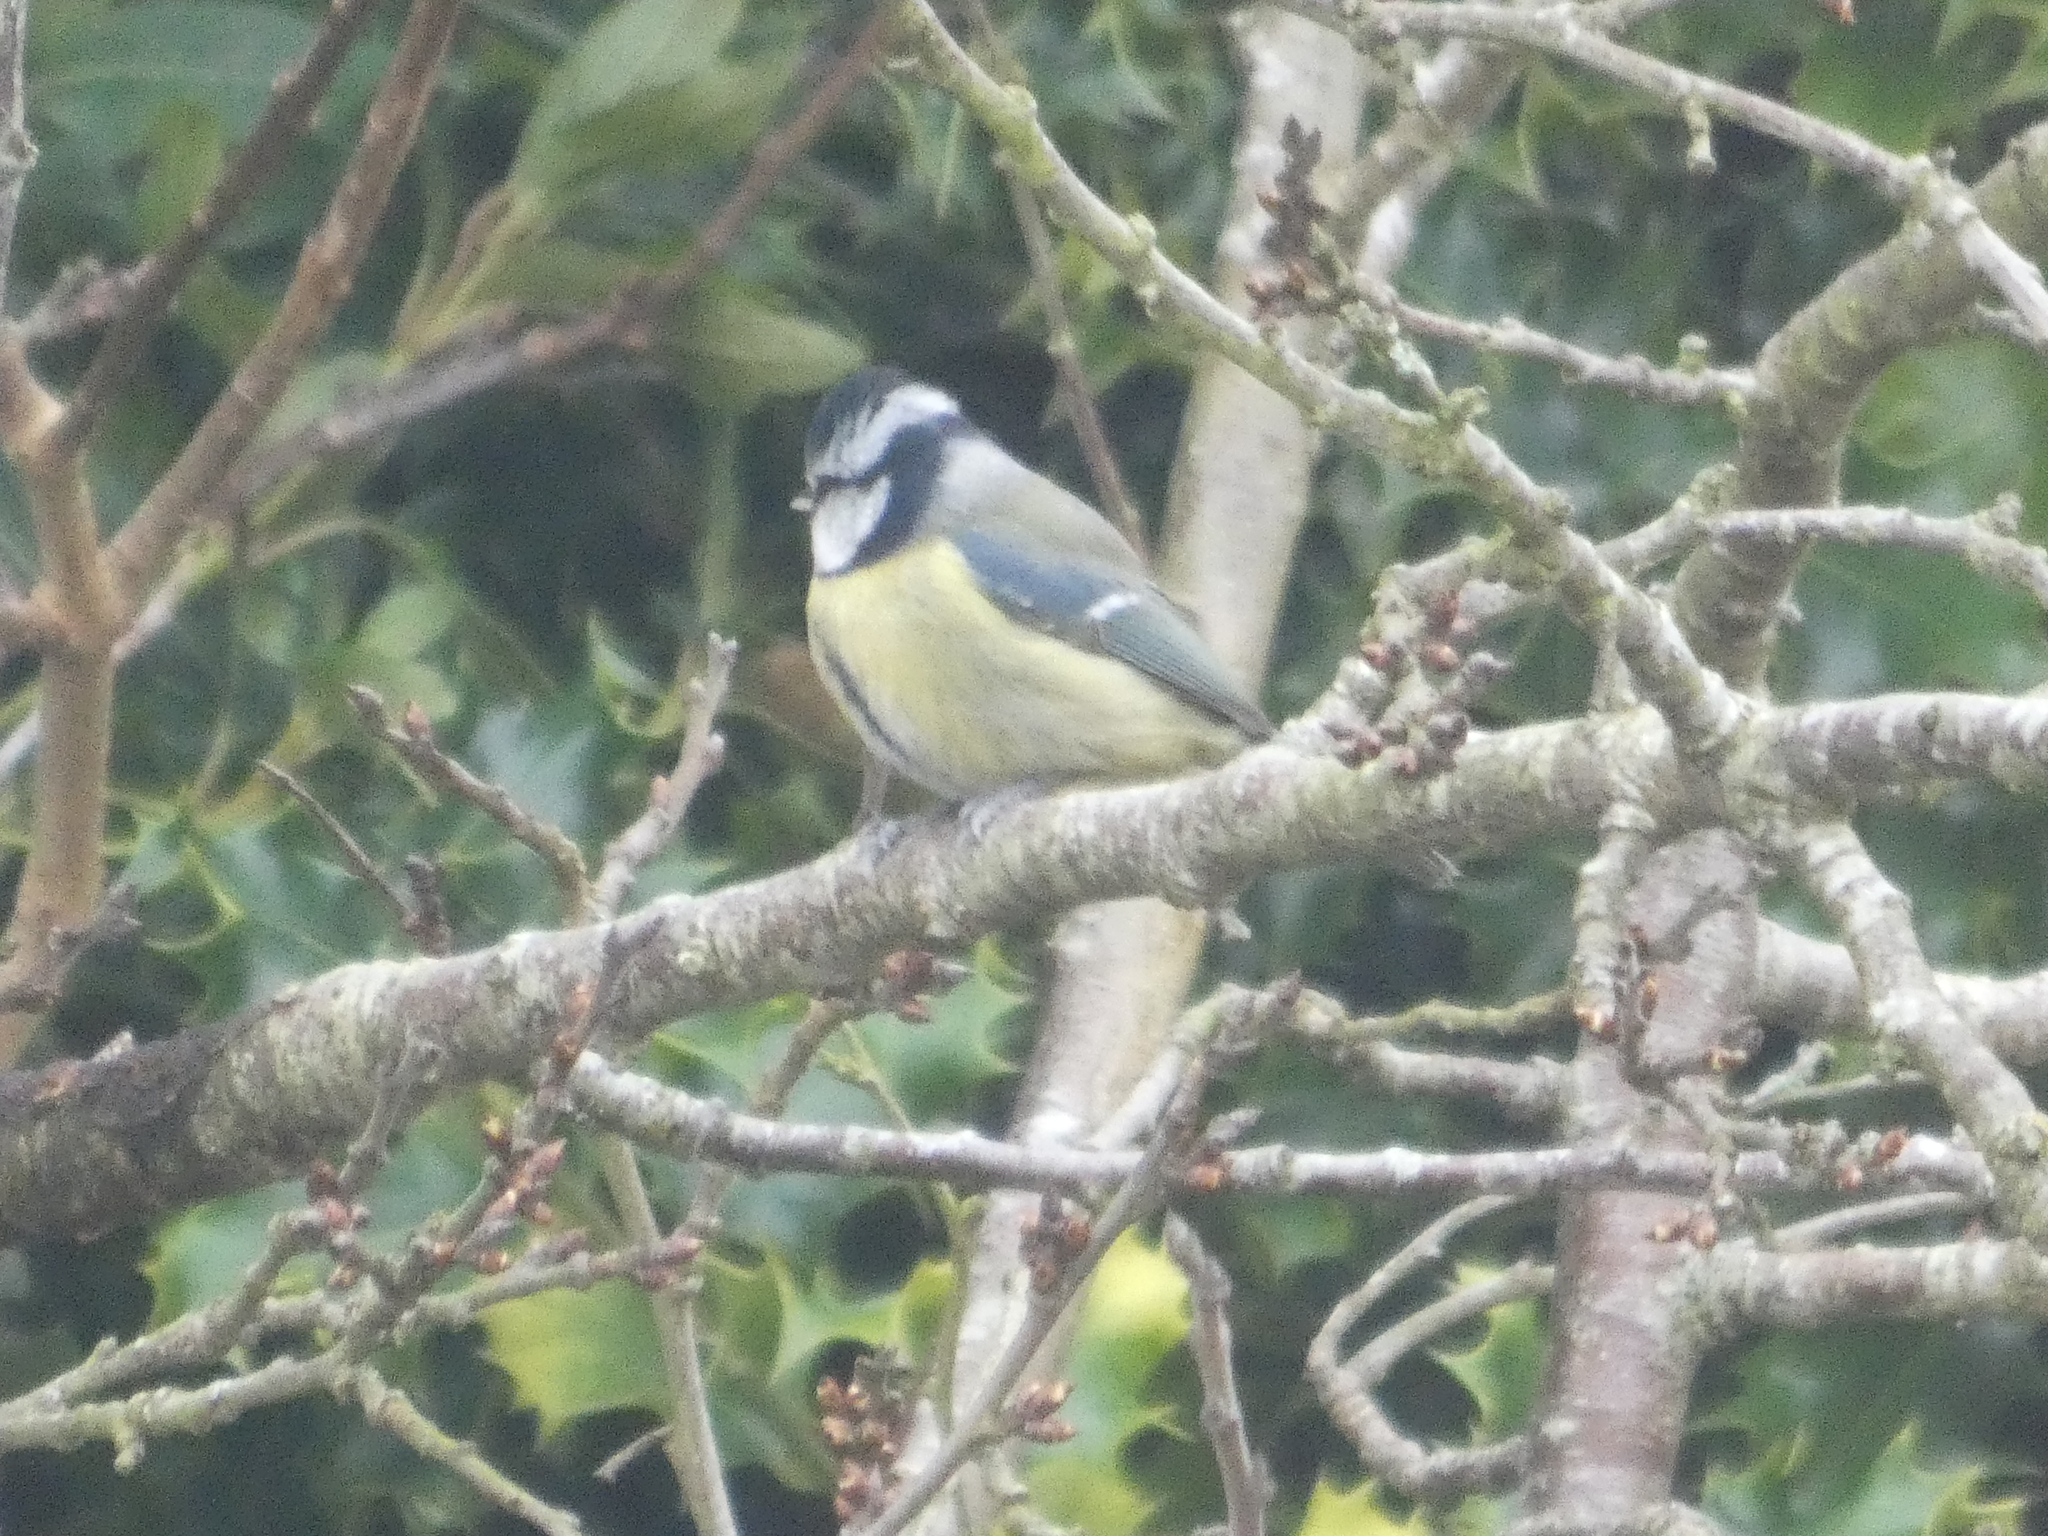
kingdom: Animalia
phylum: Chordata
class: Aves
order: Passeriformes
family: Paridae
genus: Cyanistes
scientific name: Cyanistes caeruleus
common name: Eurasian blue tit
